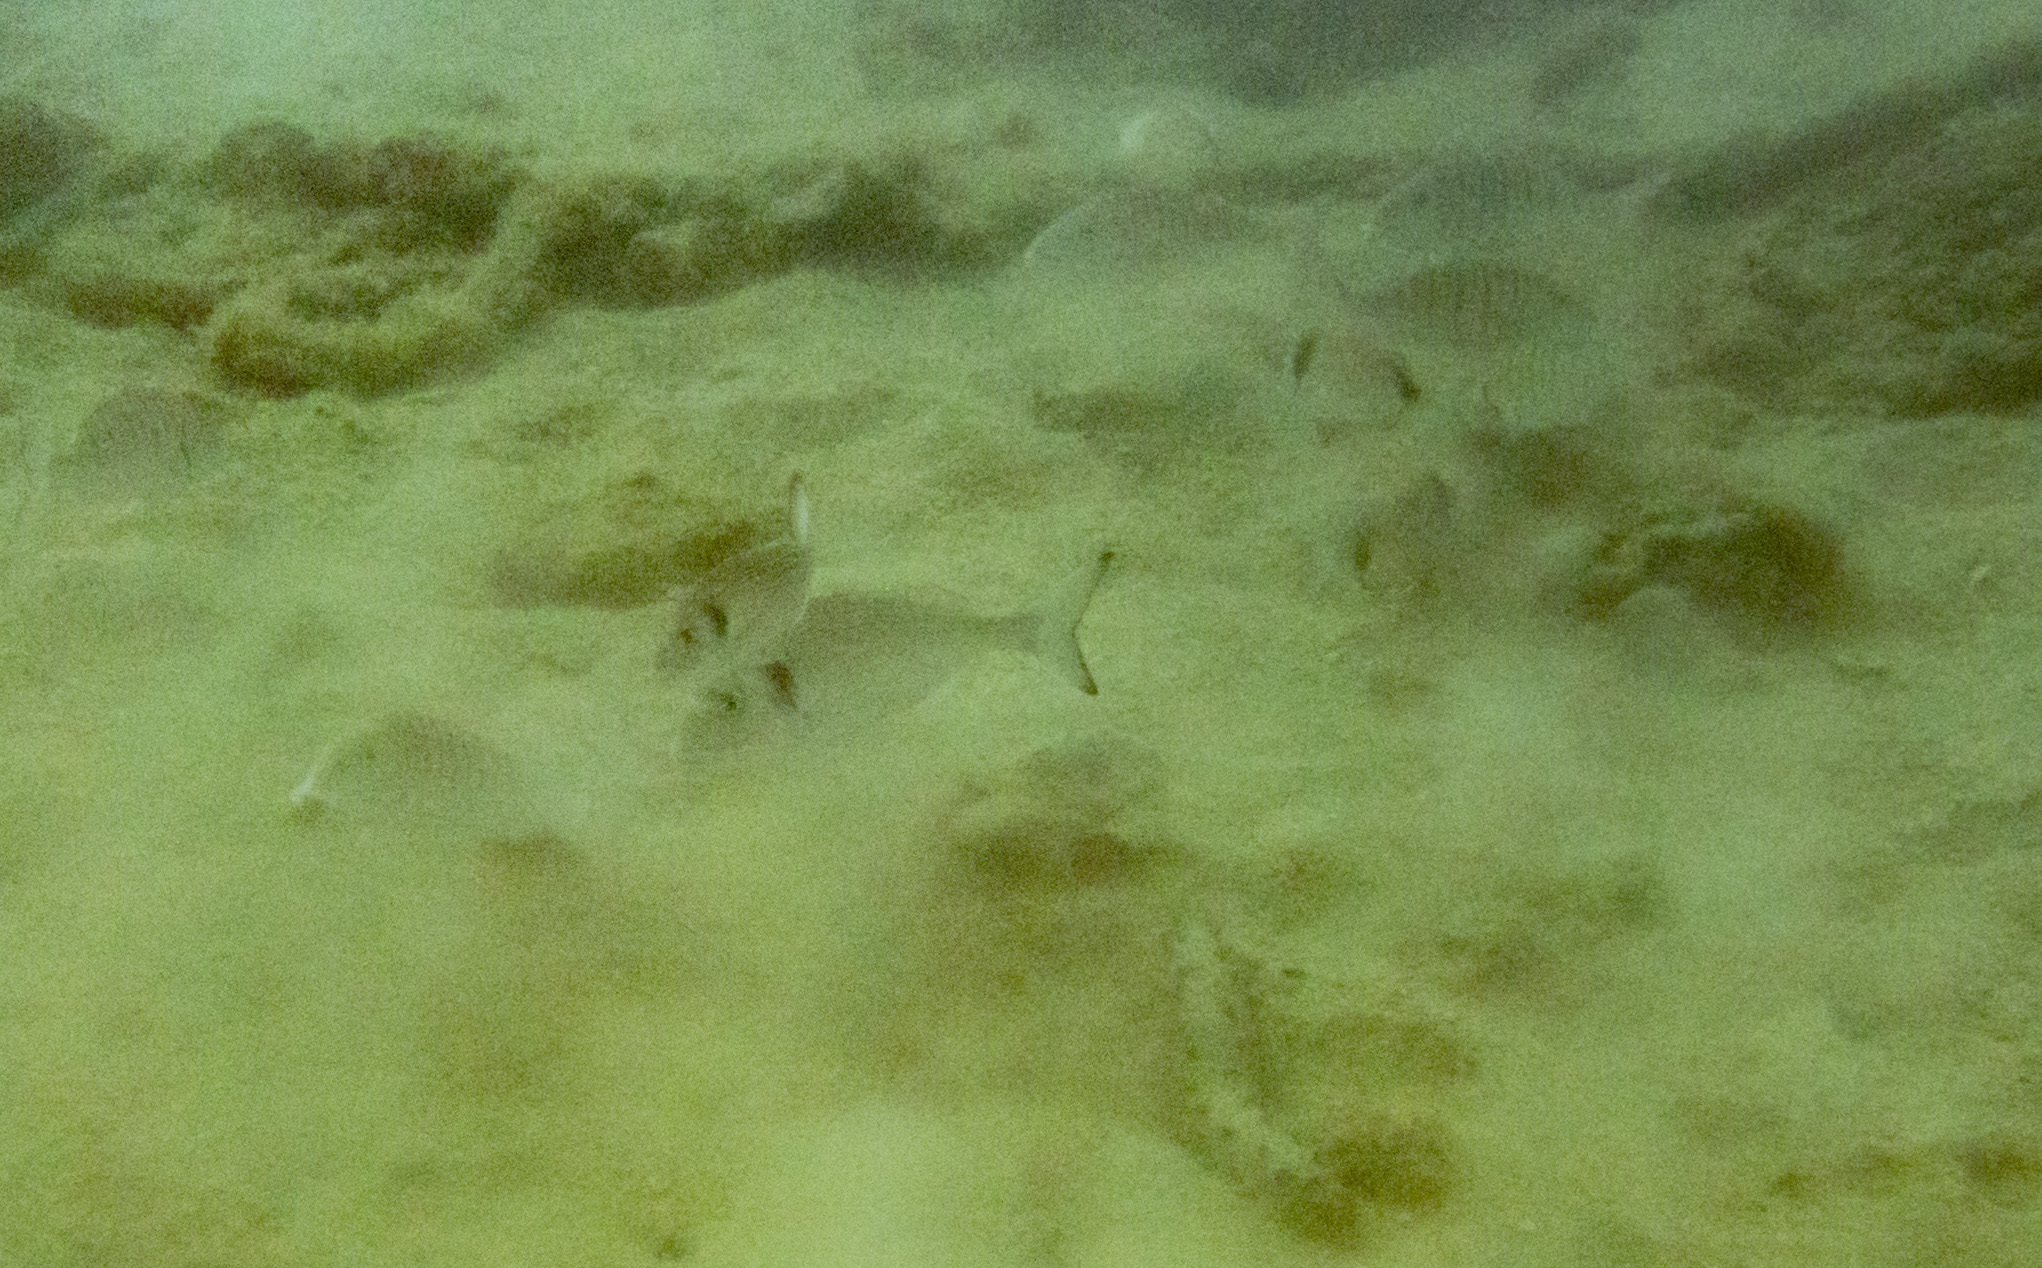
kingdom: Animalia
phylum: Chordata
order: Perciformes
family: Sparidae
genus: Lithognathus
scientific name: Lithognathus mormyrus
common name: Sand steenbras
